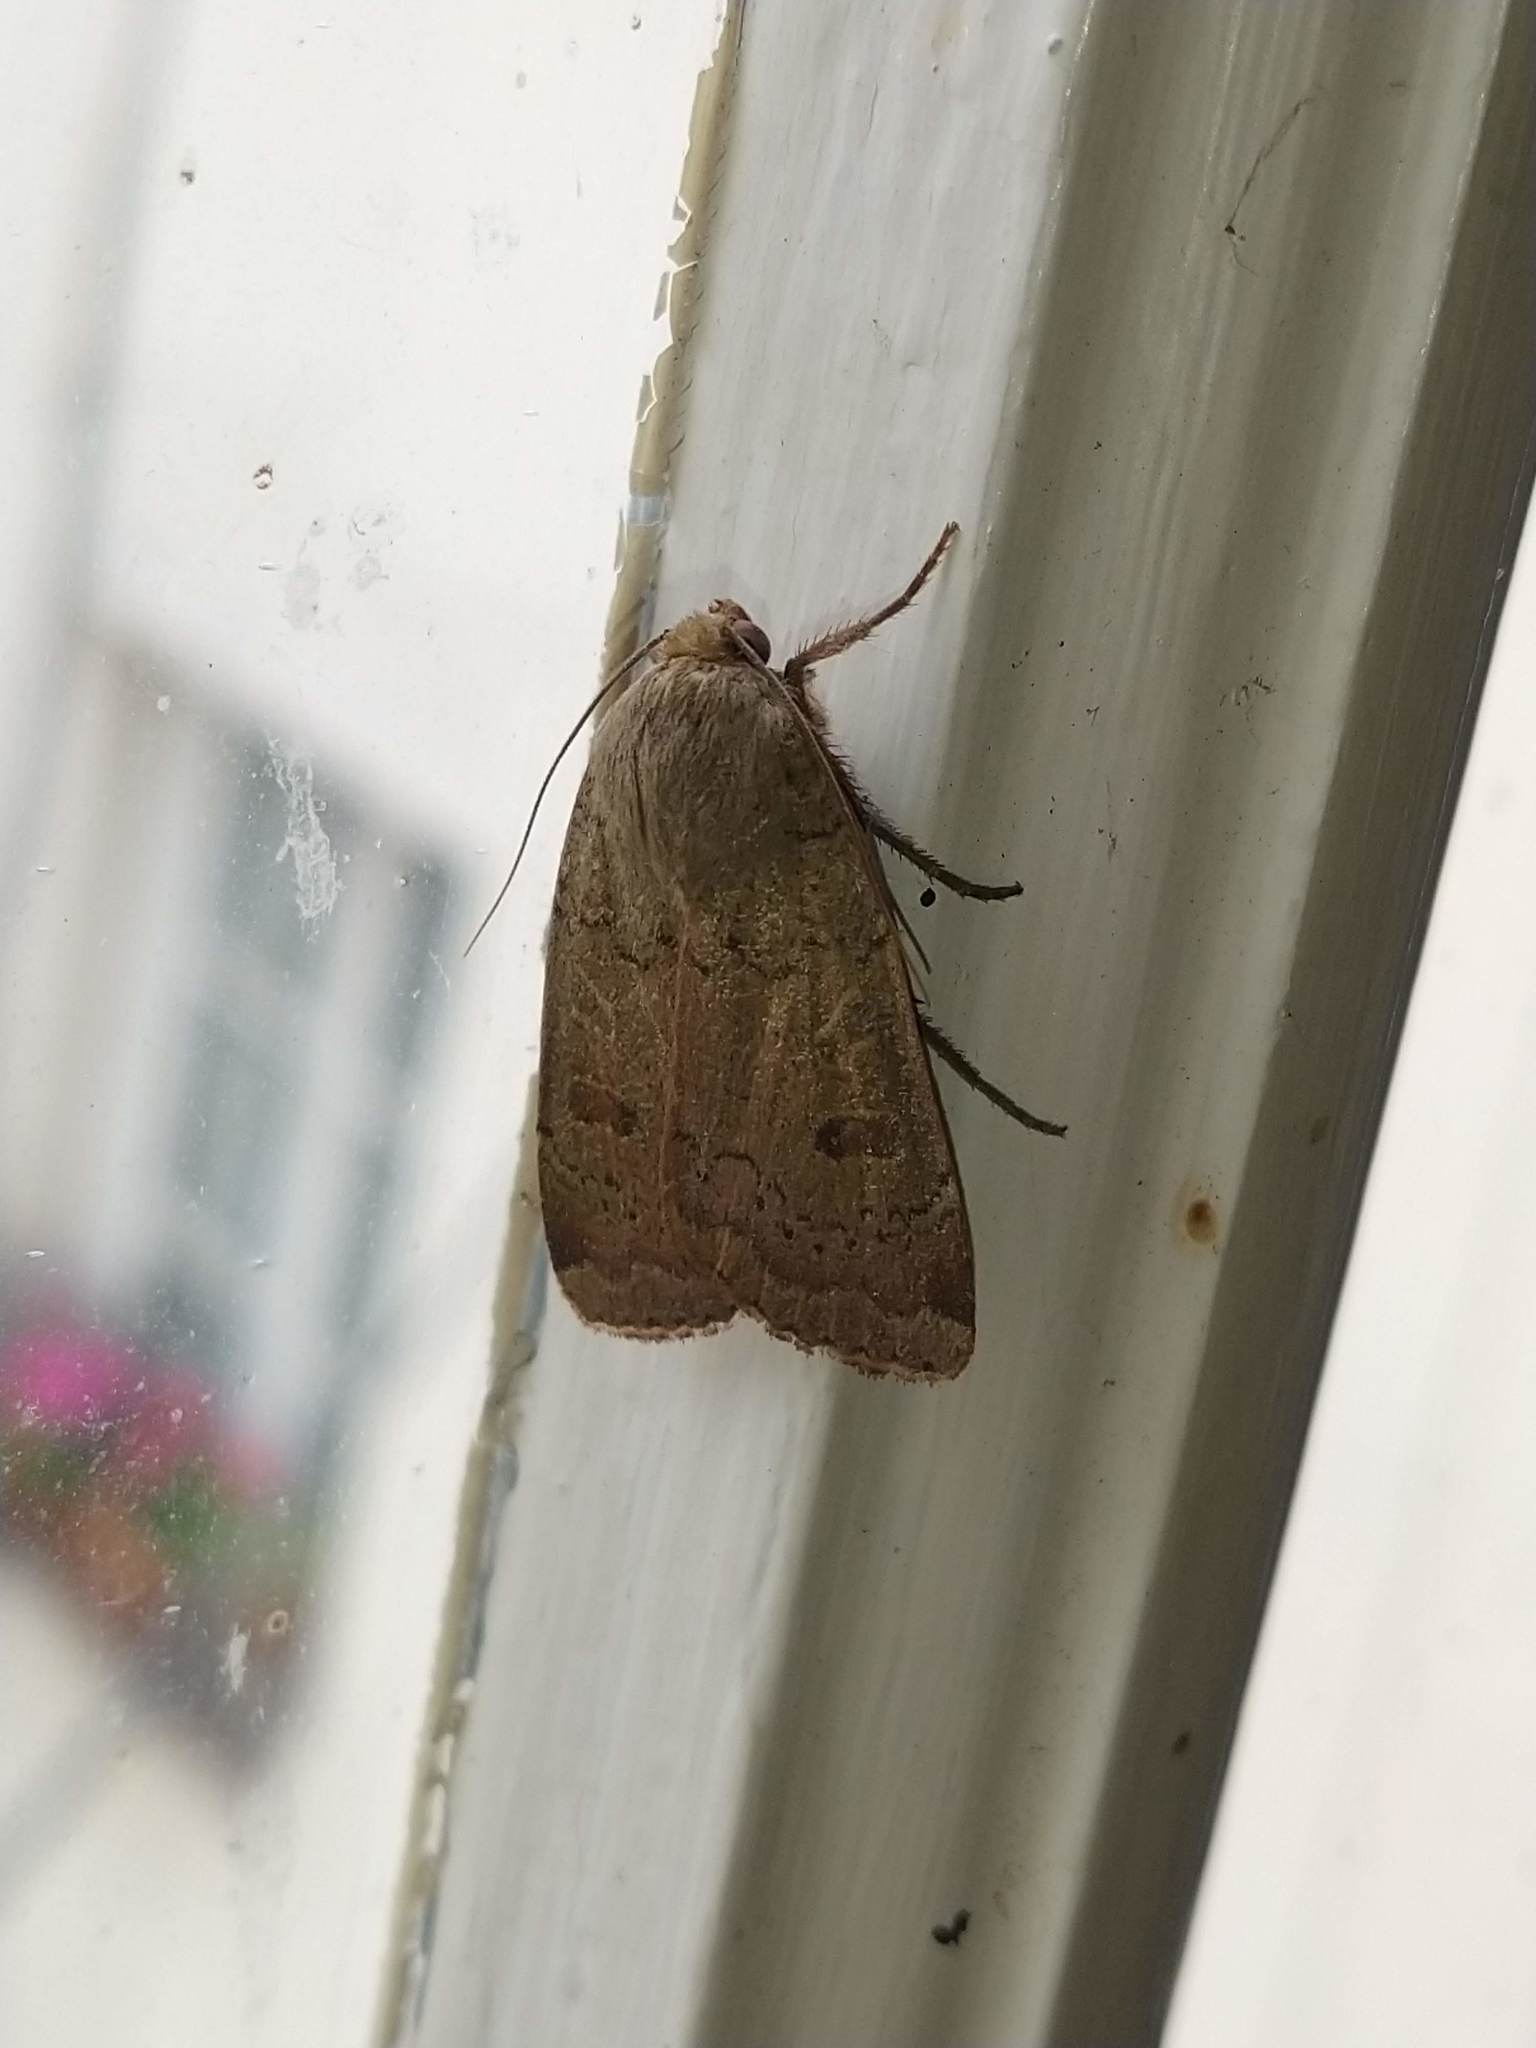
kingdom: Animalia
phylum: Arthropoda
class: Insecta
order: Lepidoptera
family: Noctuidae
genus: Noctua
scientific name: Noctua comes
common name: Lesser yellow underwing
